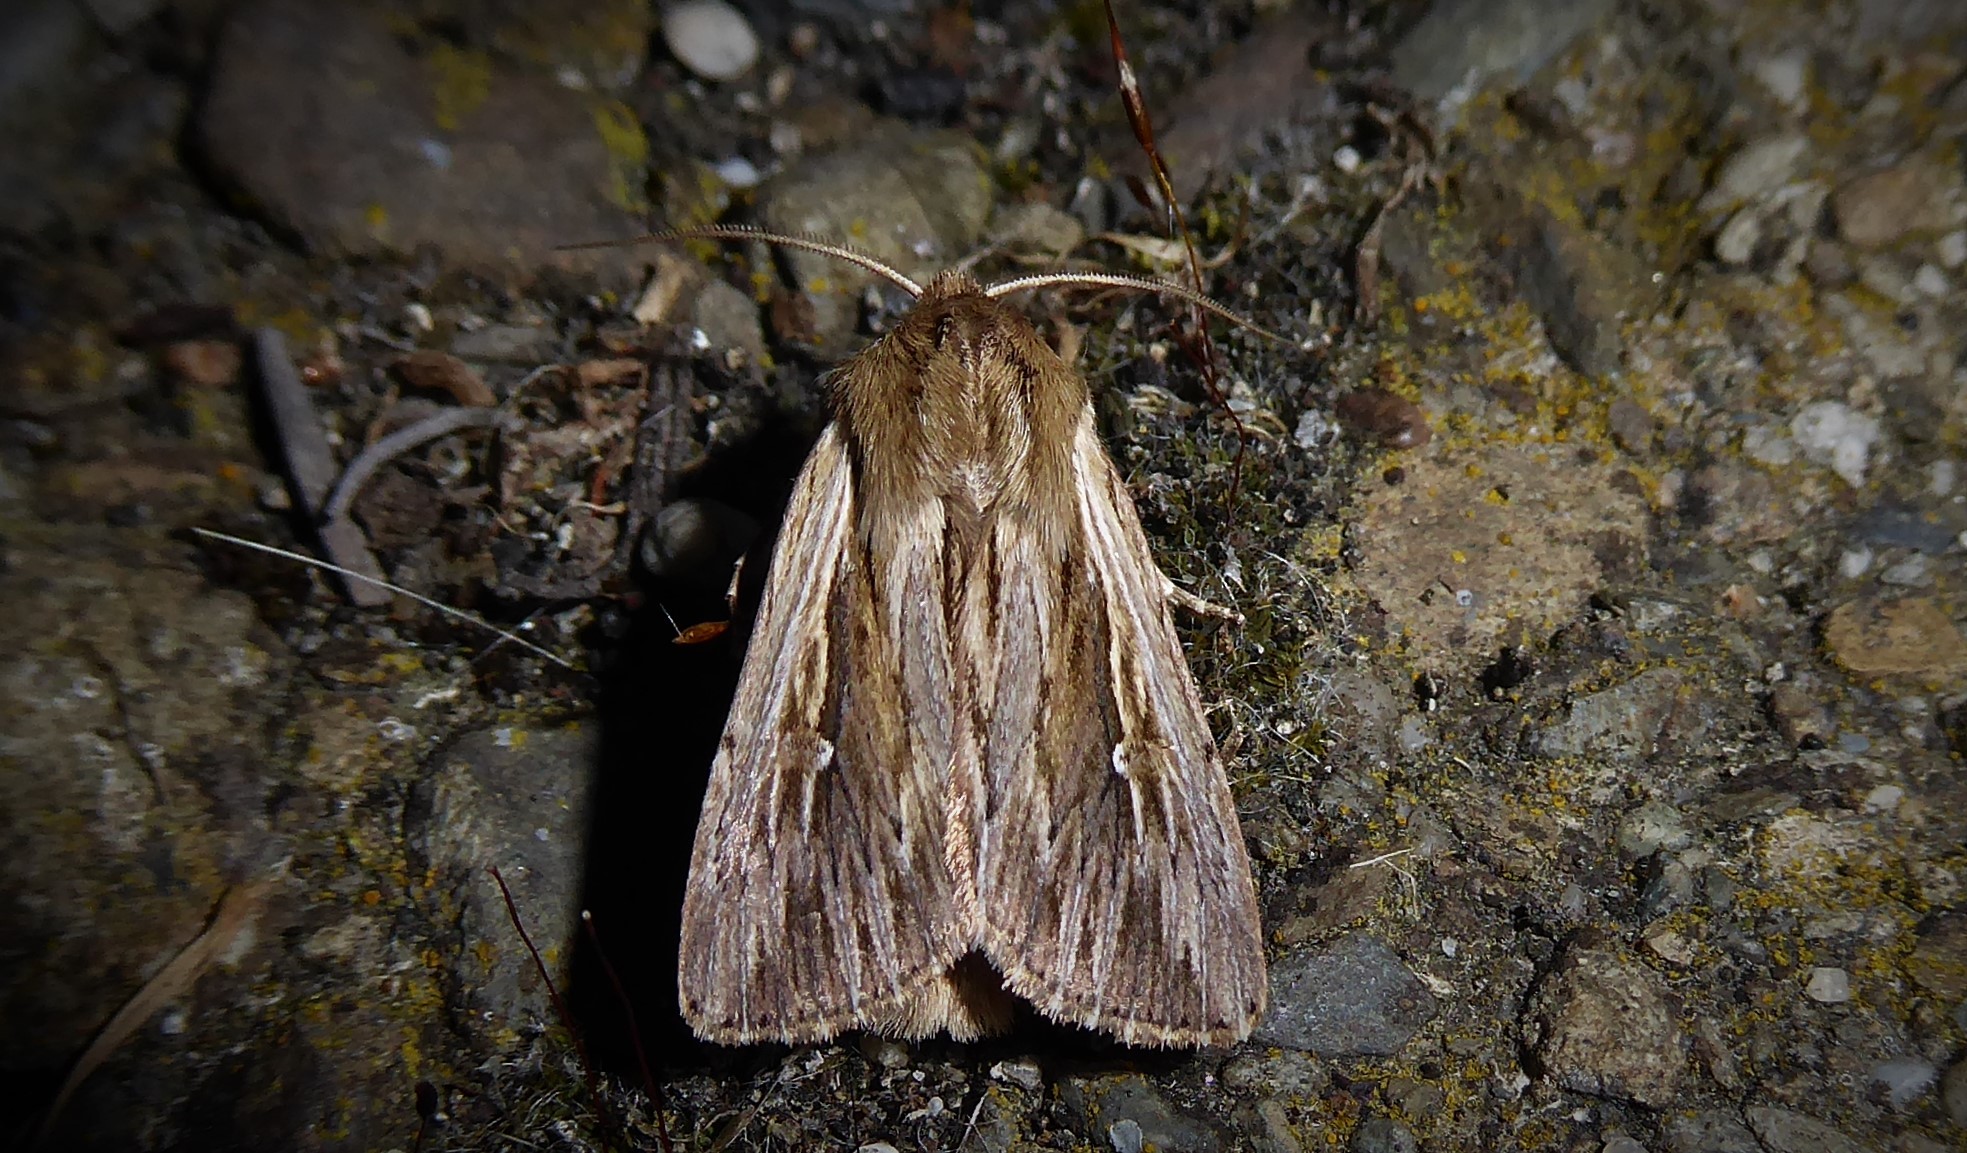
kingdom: Animalia
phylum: Arthropoda
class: Insecta
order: Lepidoptera
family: Noctuidae
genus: Persectania
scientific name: Persectania aversa
